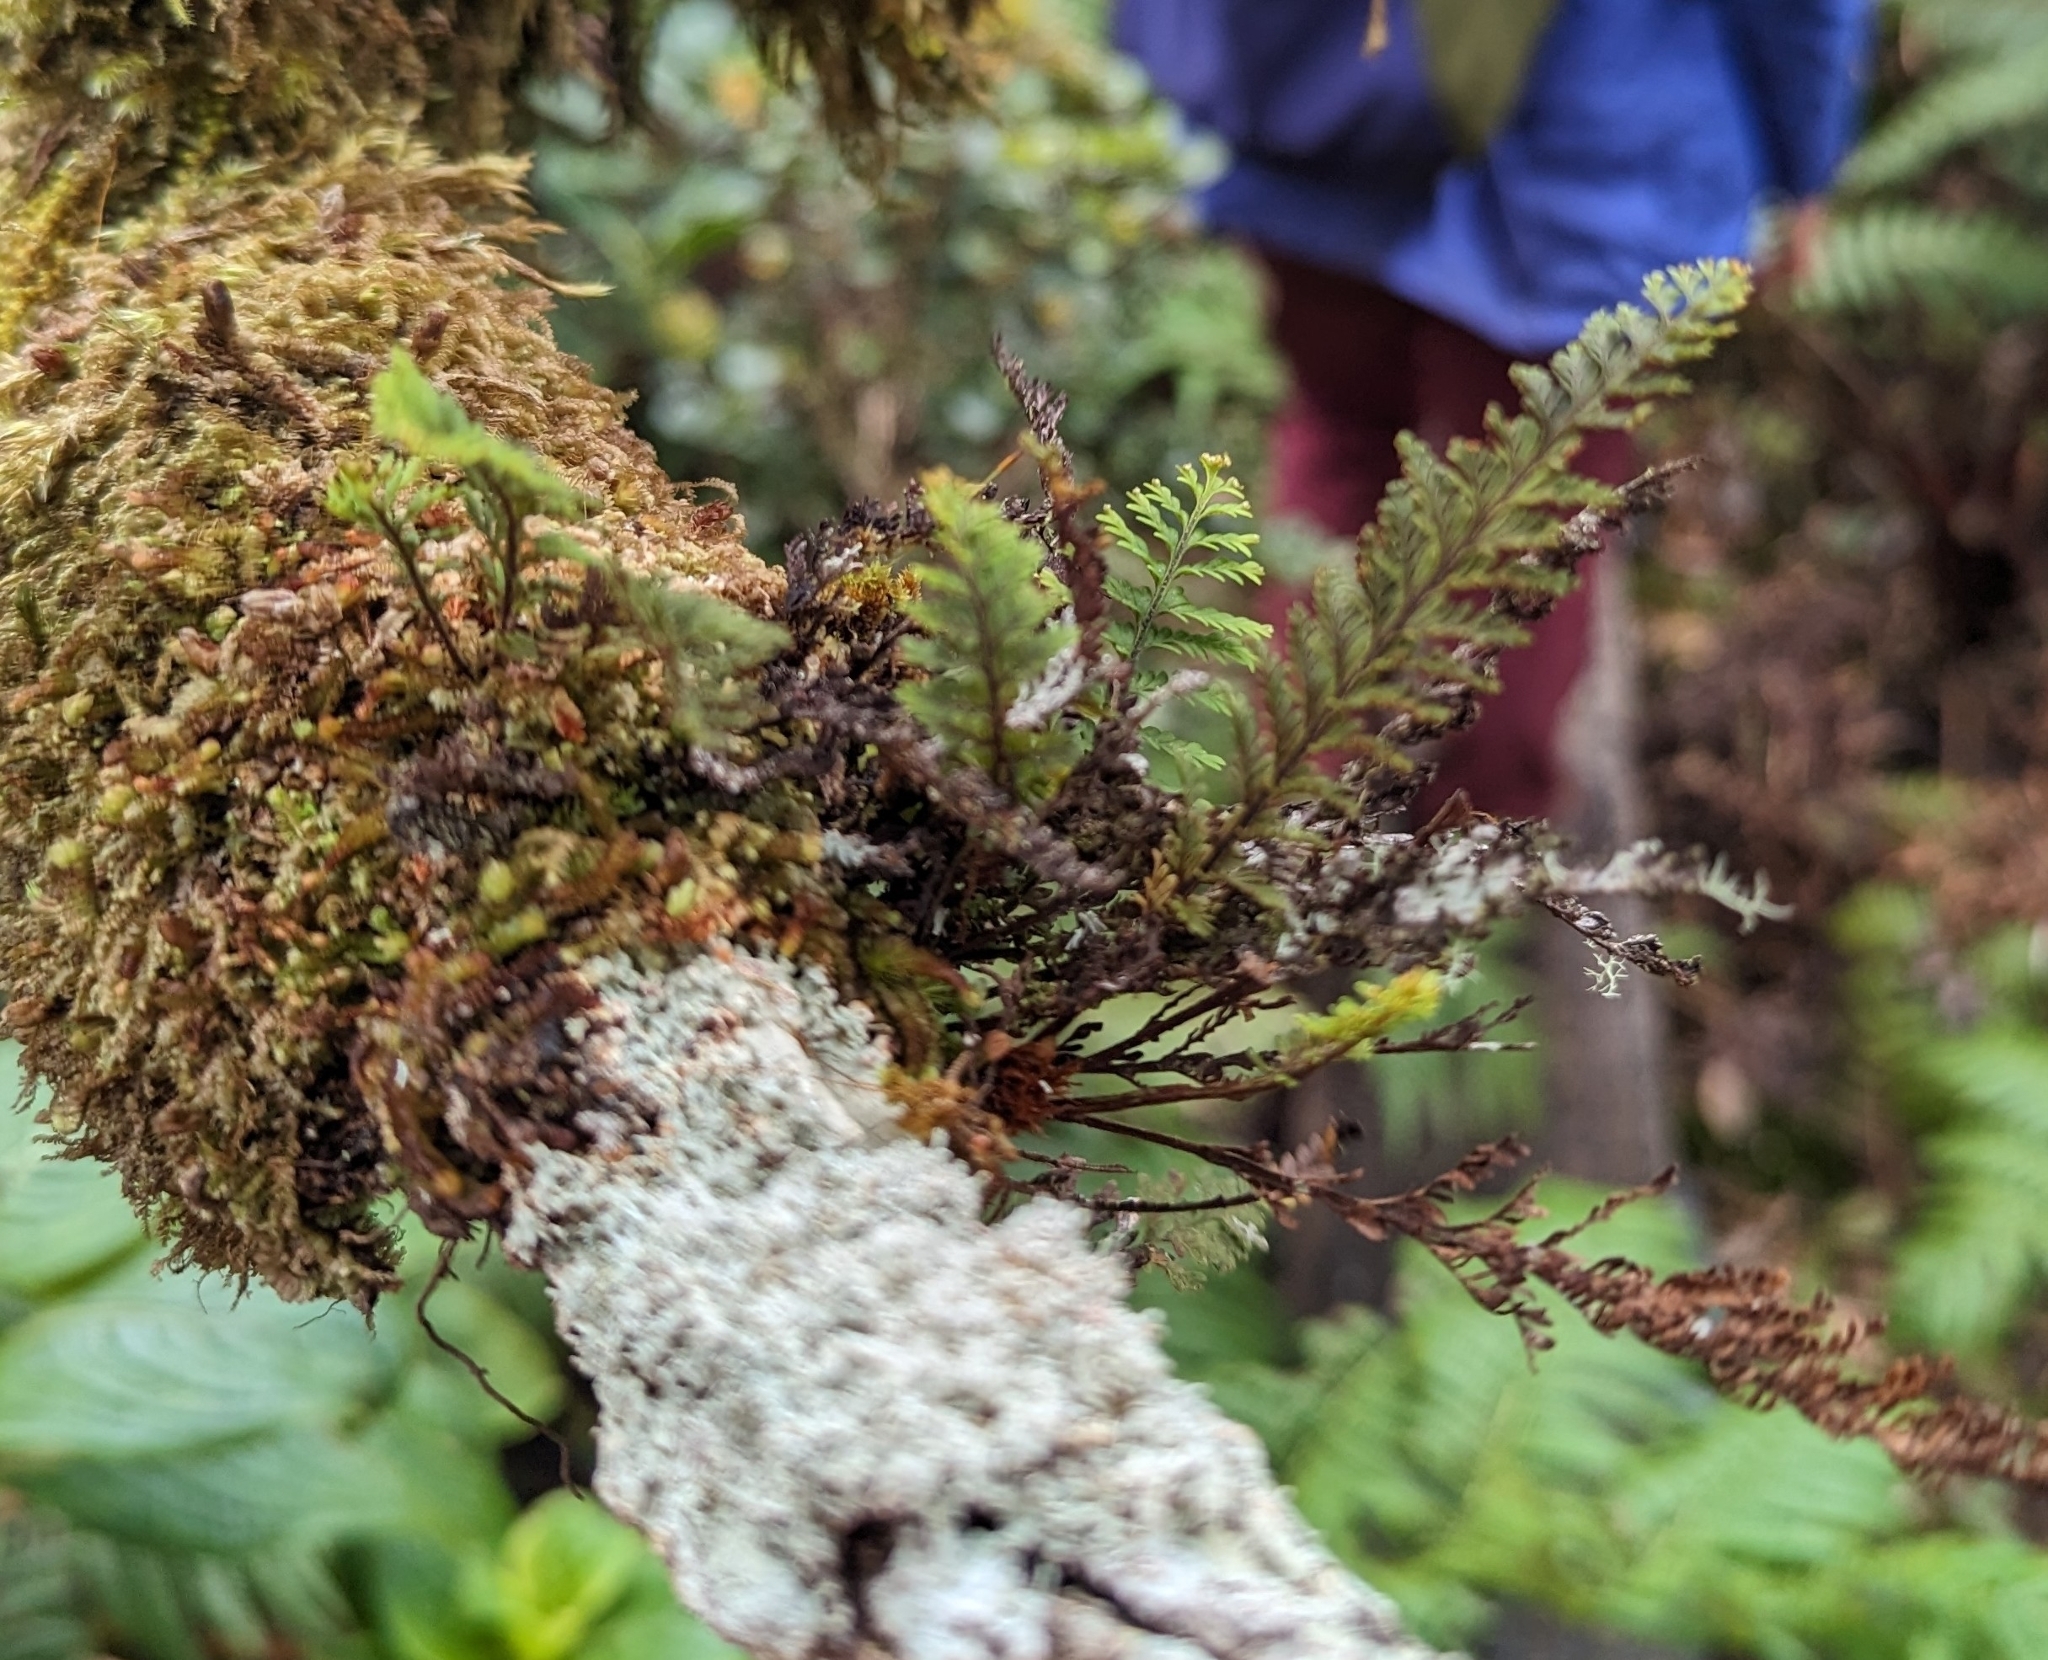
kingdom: Plantae
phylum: Tracheophyta
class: Polypodiopsida
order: Polypodiales
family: Polypodiaceae
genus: Adenophorus
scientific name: Adenophorus tamariscinus
